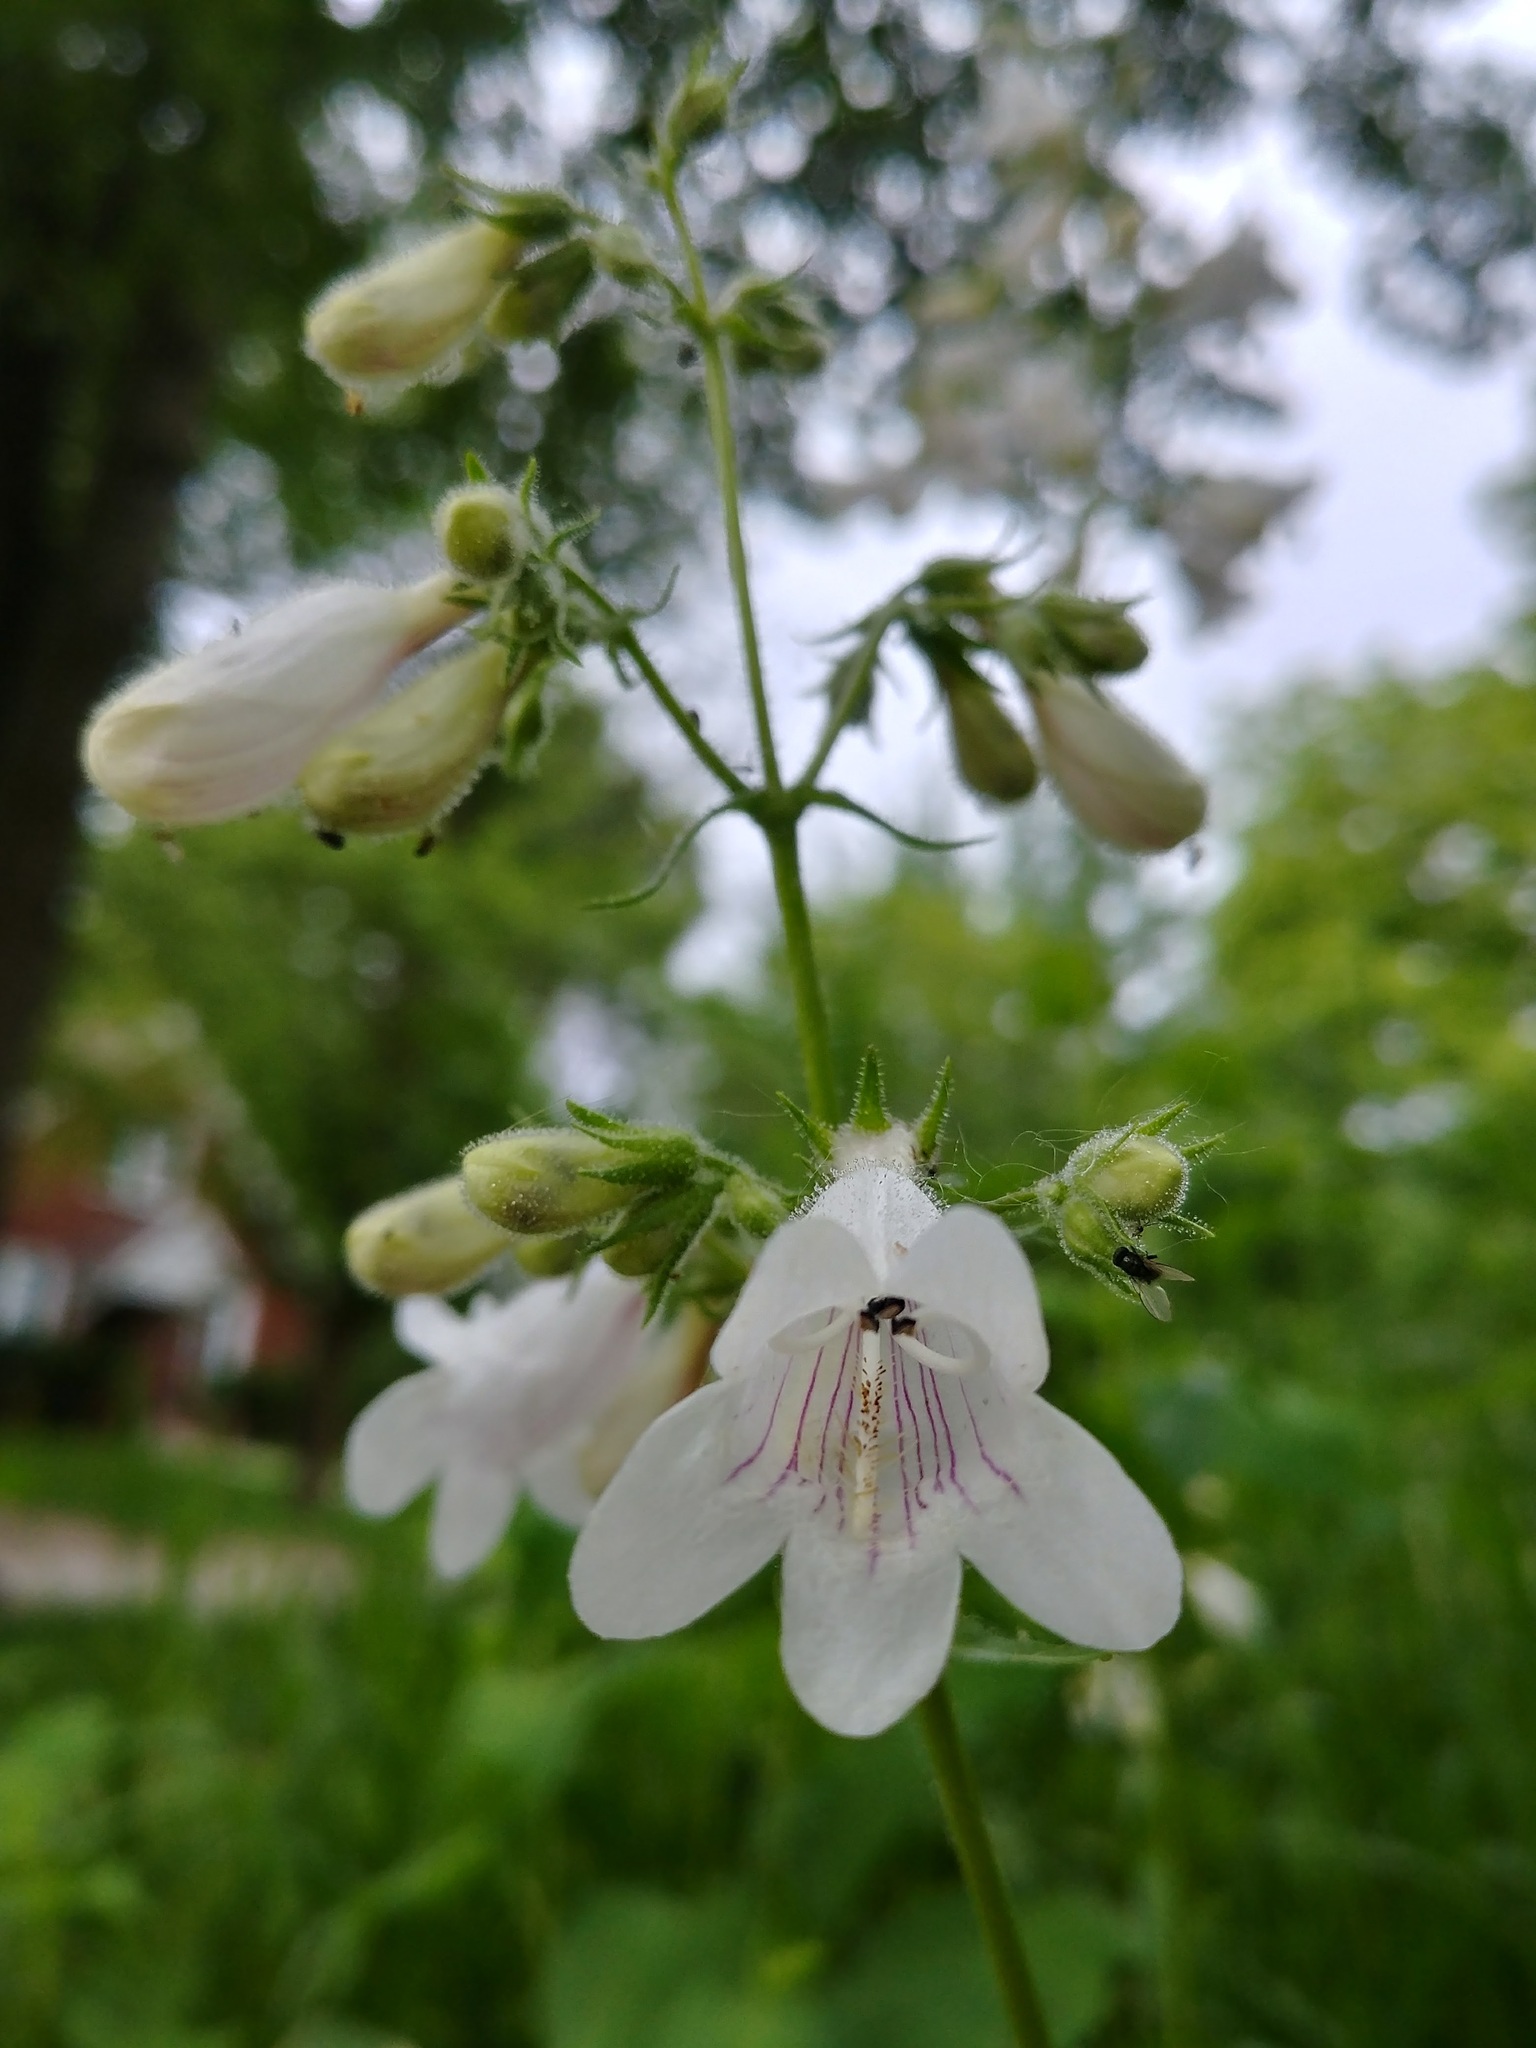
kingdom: Plantae
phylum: Tracheophyta
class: Magnoliopsida
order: Lamiales
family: Plantaginaceae
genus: Penstemon
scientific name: Penstemon digitalis
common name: Foxglove beardtongue
